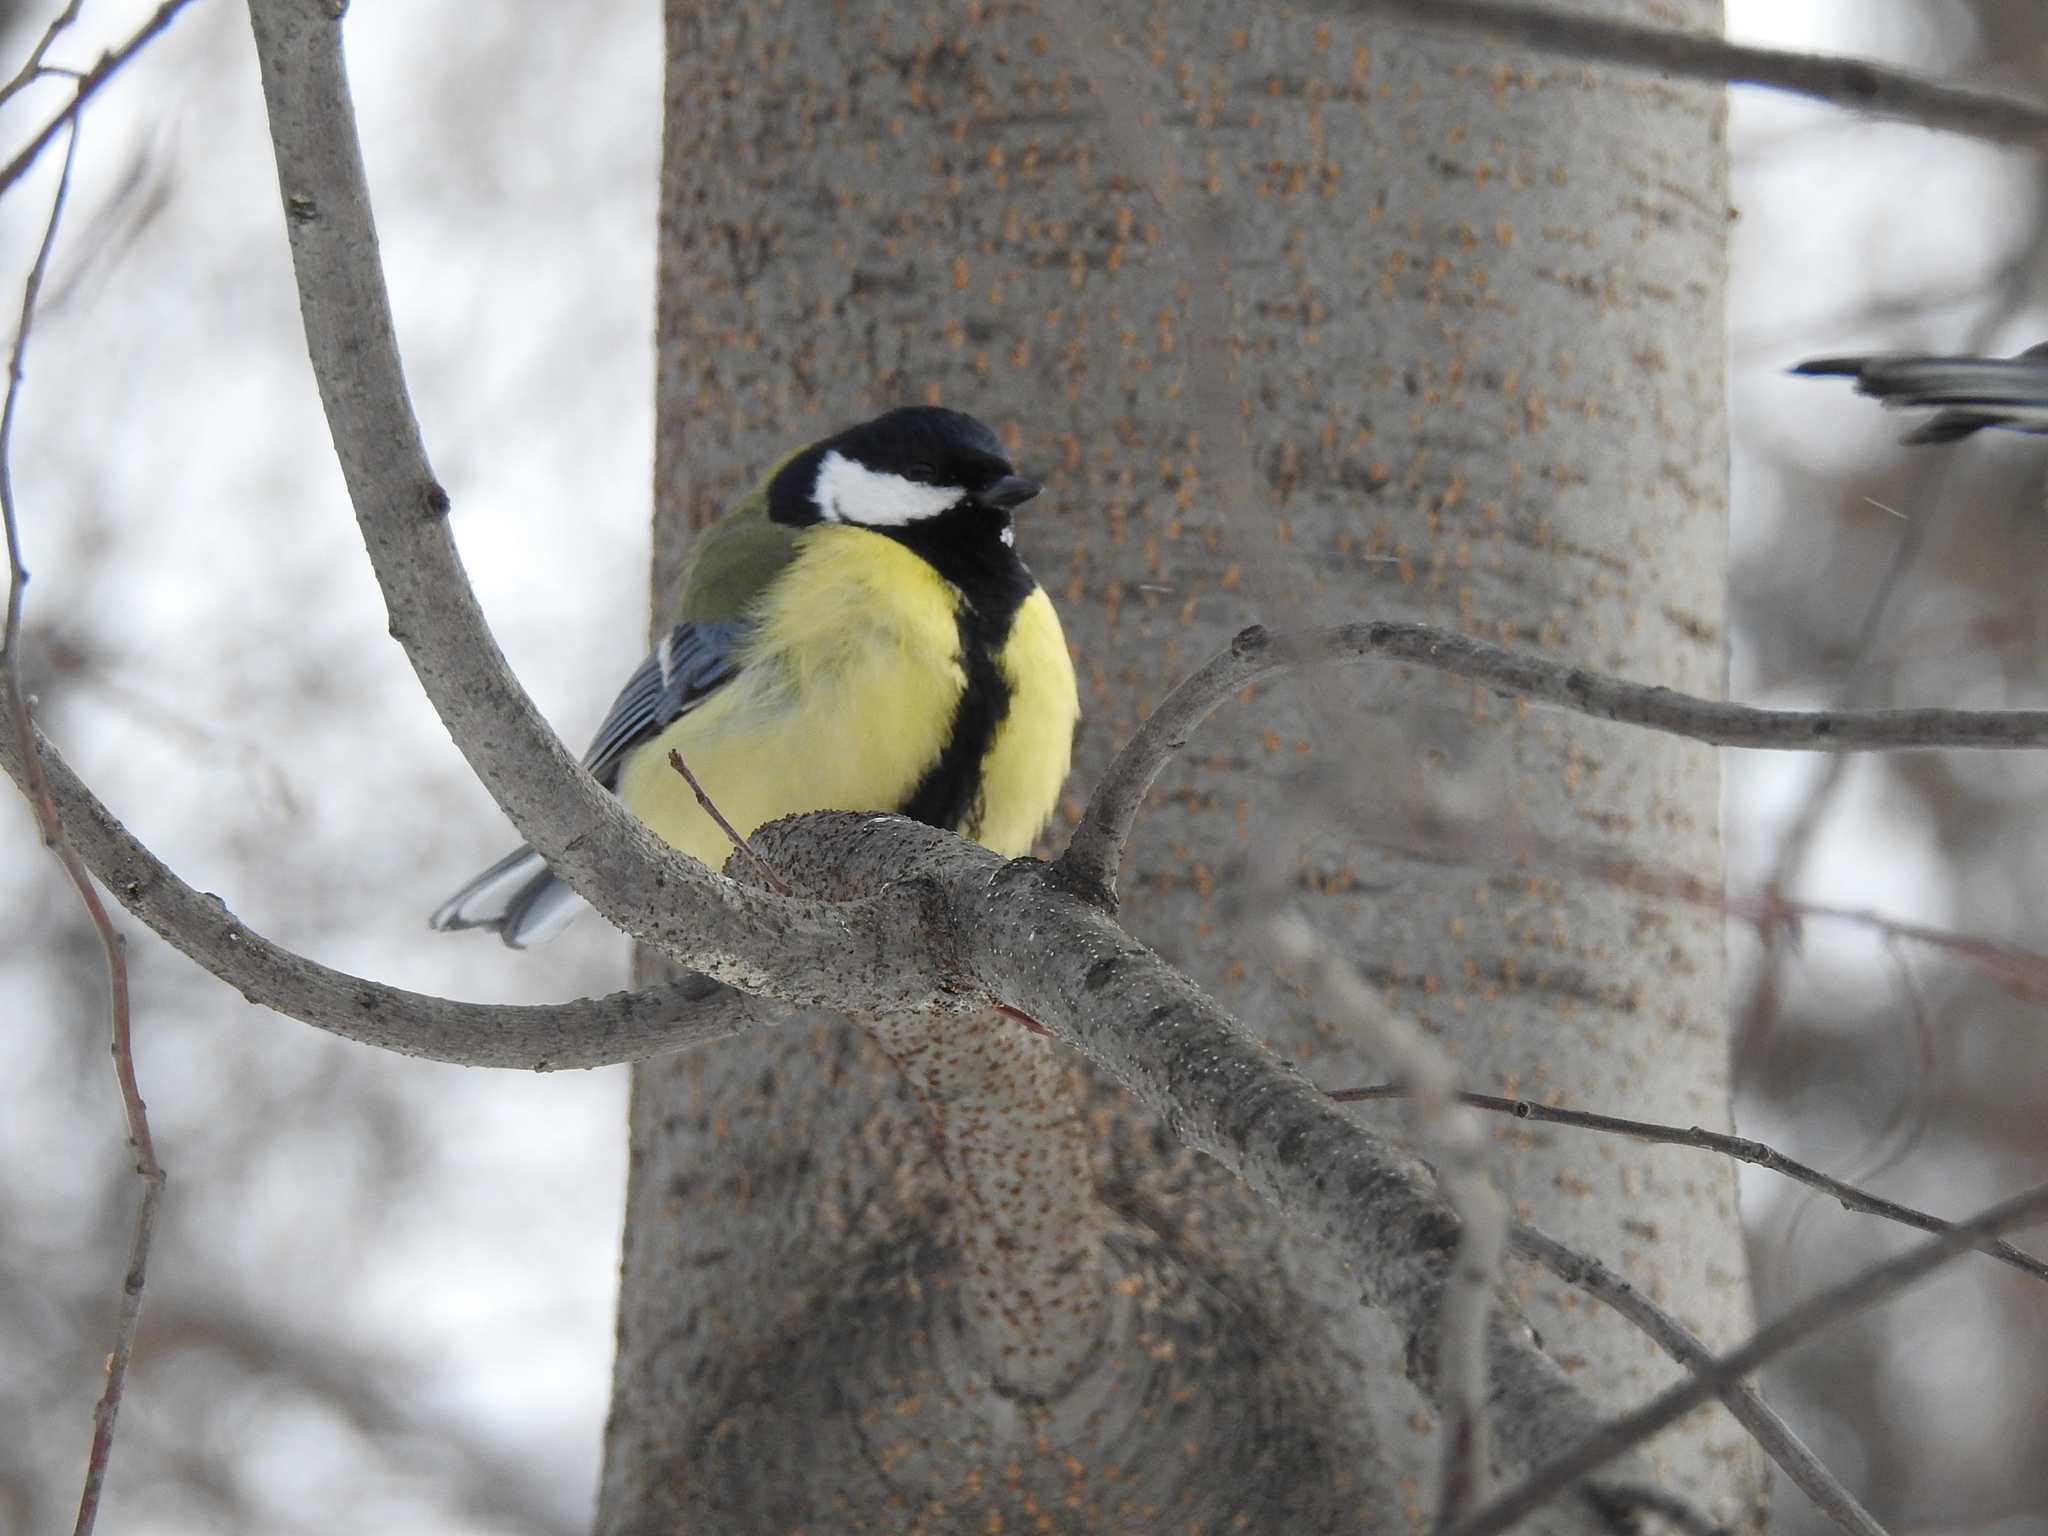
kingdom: Animalia
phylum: Chordata
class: Aves
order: Passeriformes
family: Paridae
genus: Parus
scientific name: Parus major
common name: Great tit
